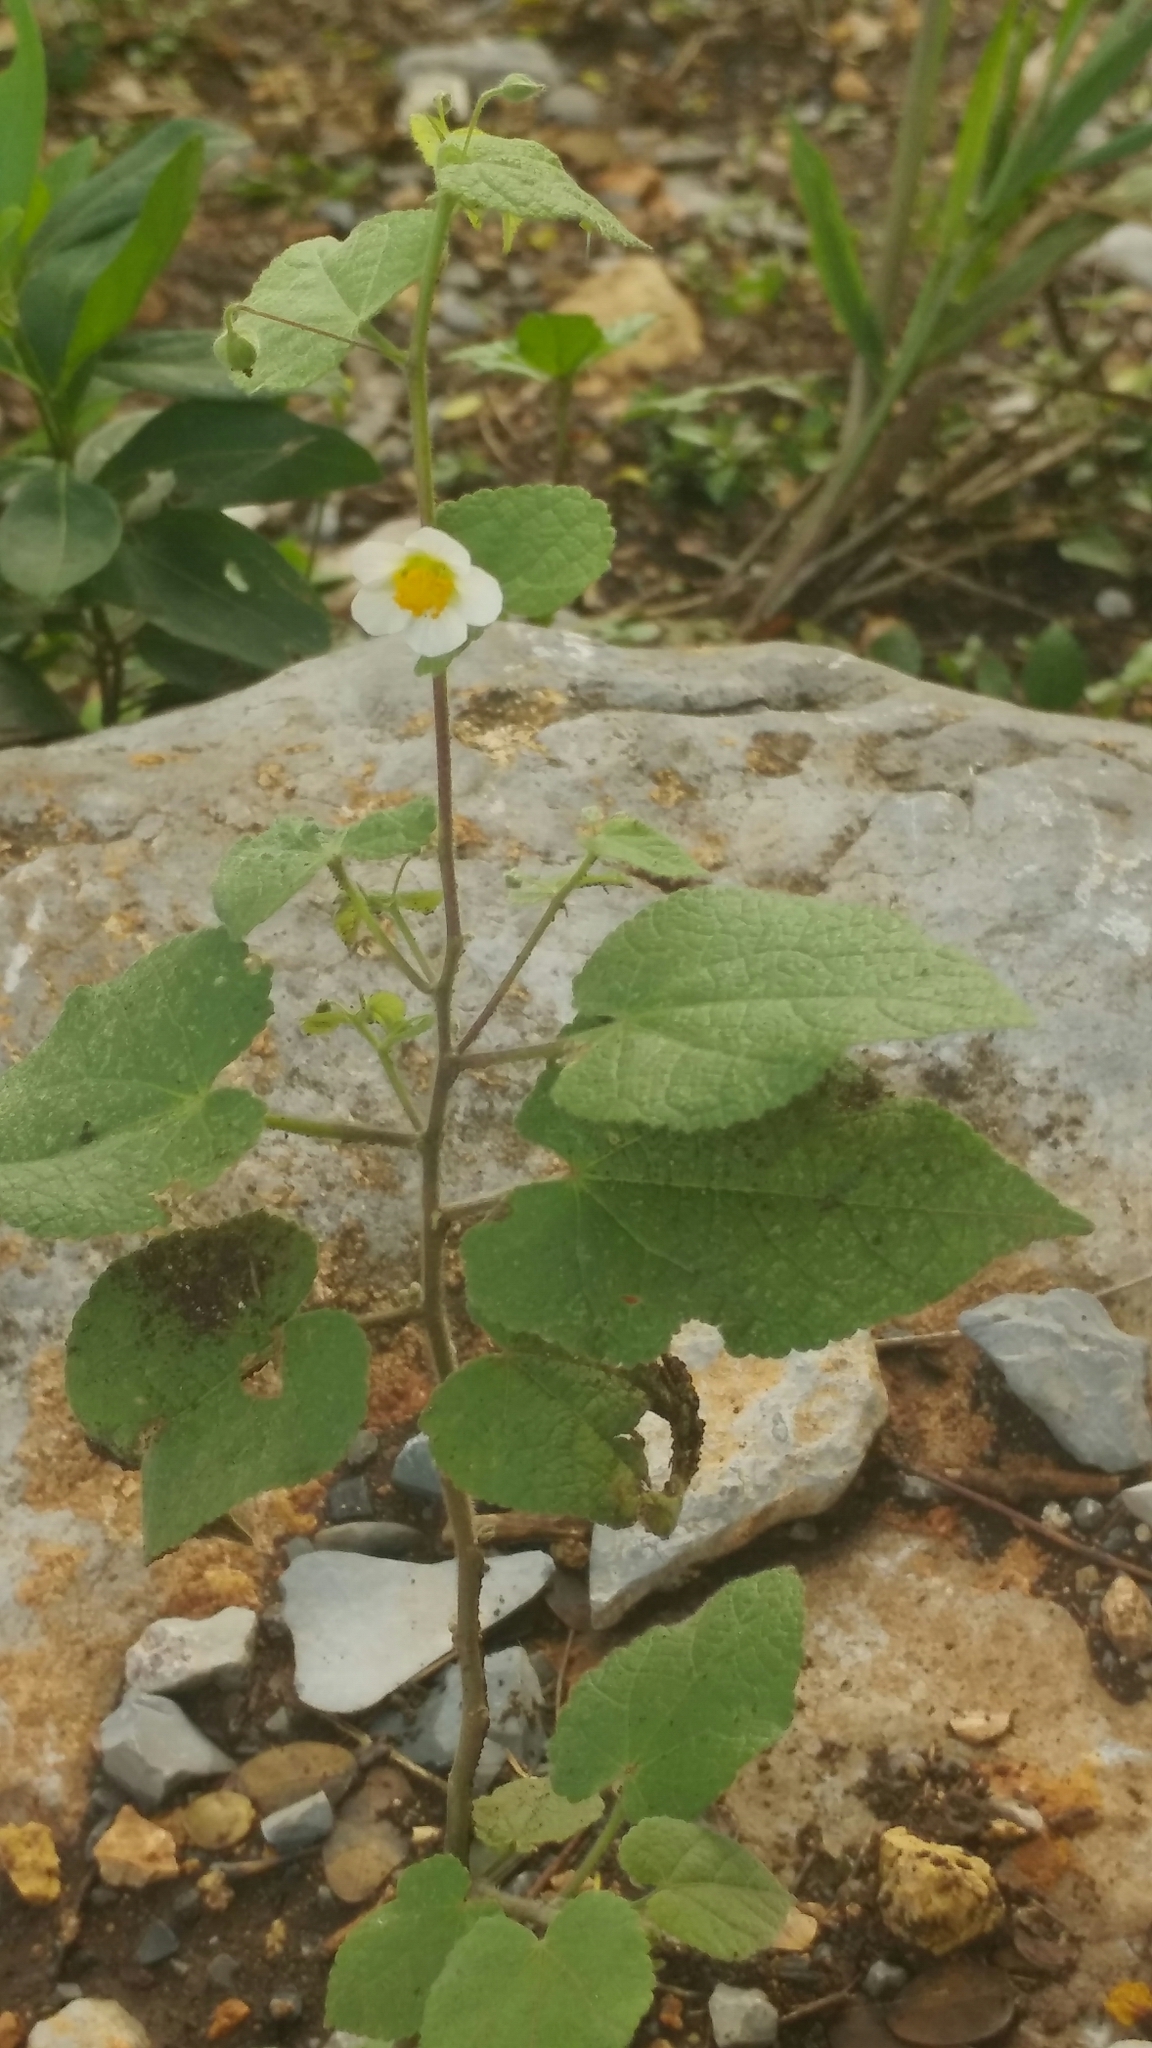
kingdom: Plantae
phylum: Tracheophyta
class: Magnoliopsida
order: Malvales
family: Malvaceae
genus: Herissantia
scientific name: Herissantia crispa
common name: Bladdermallow
